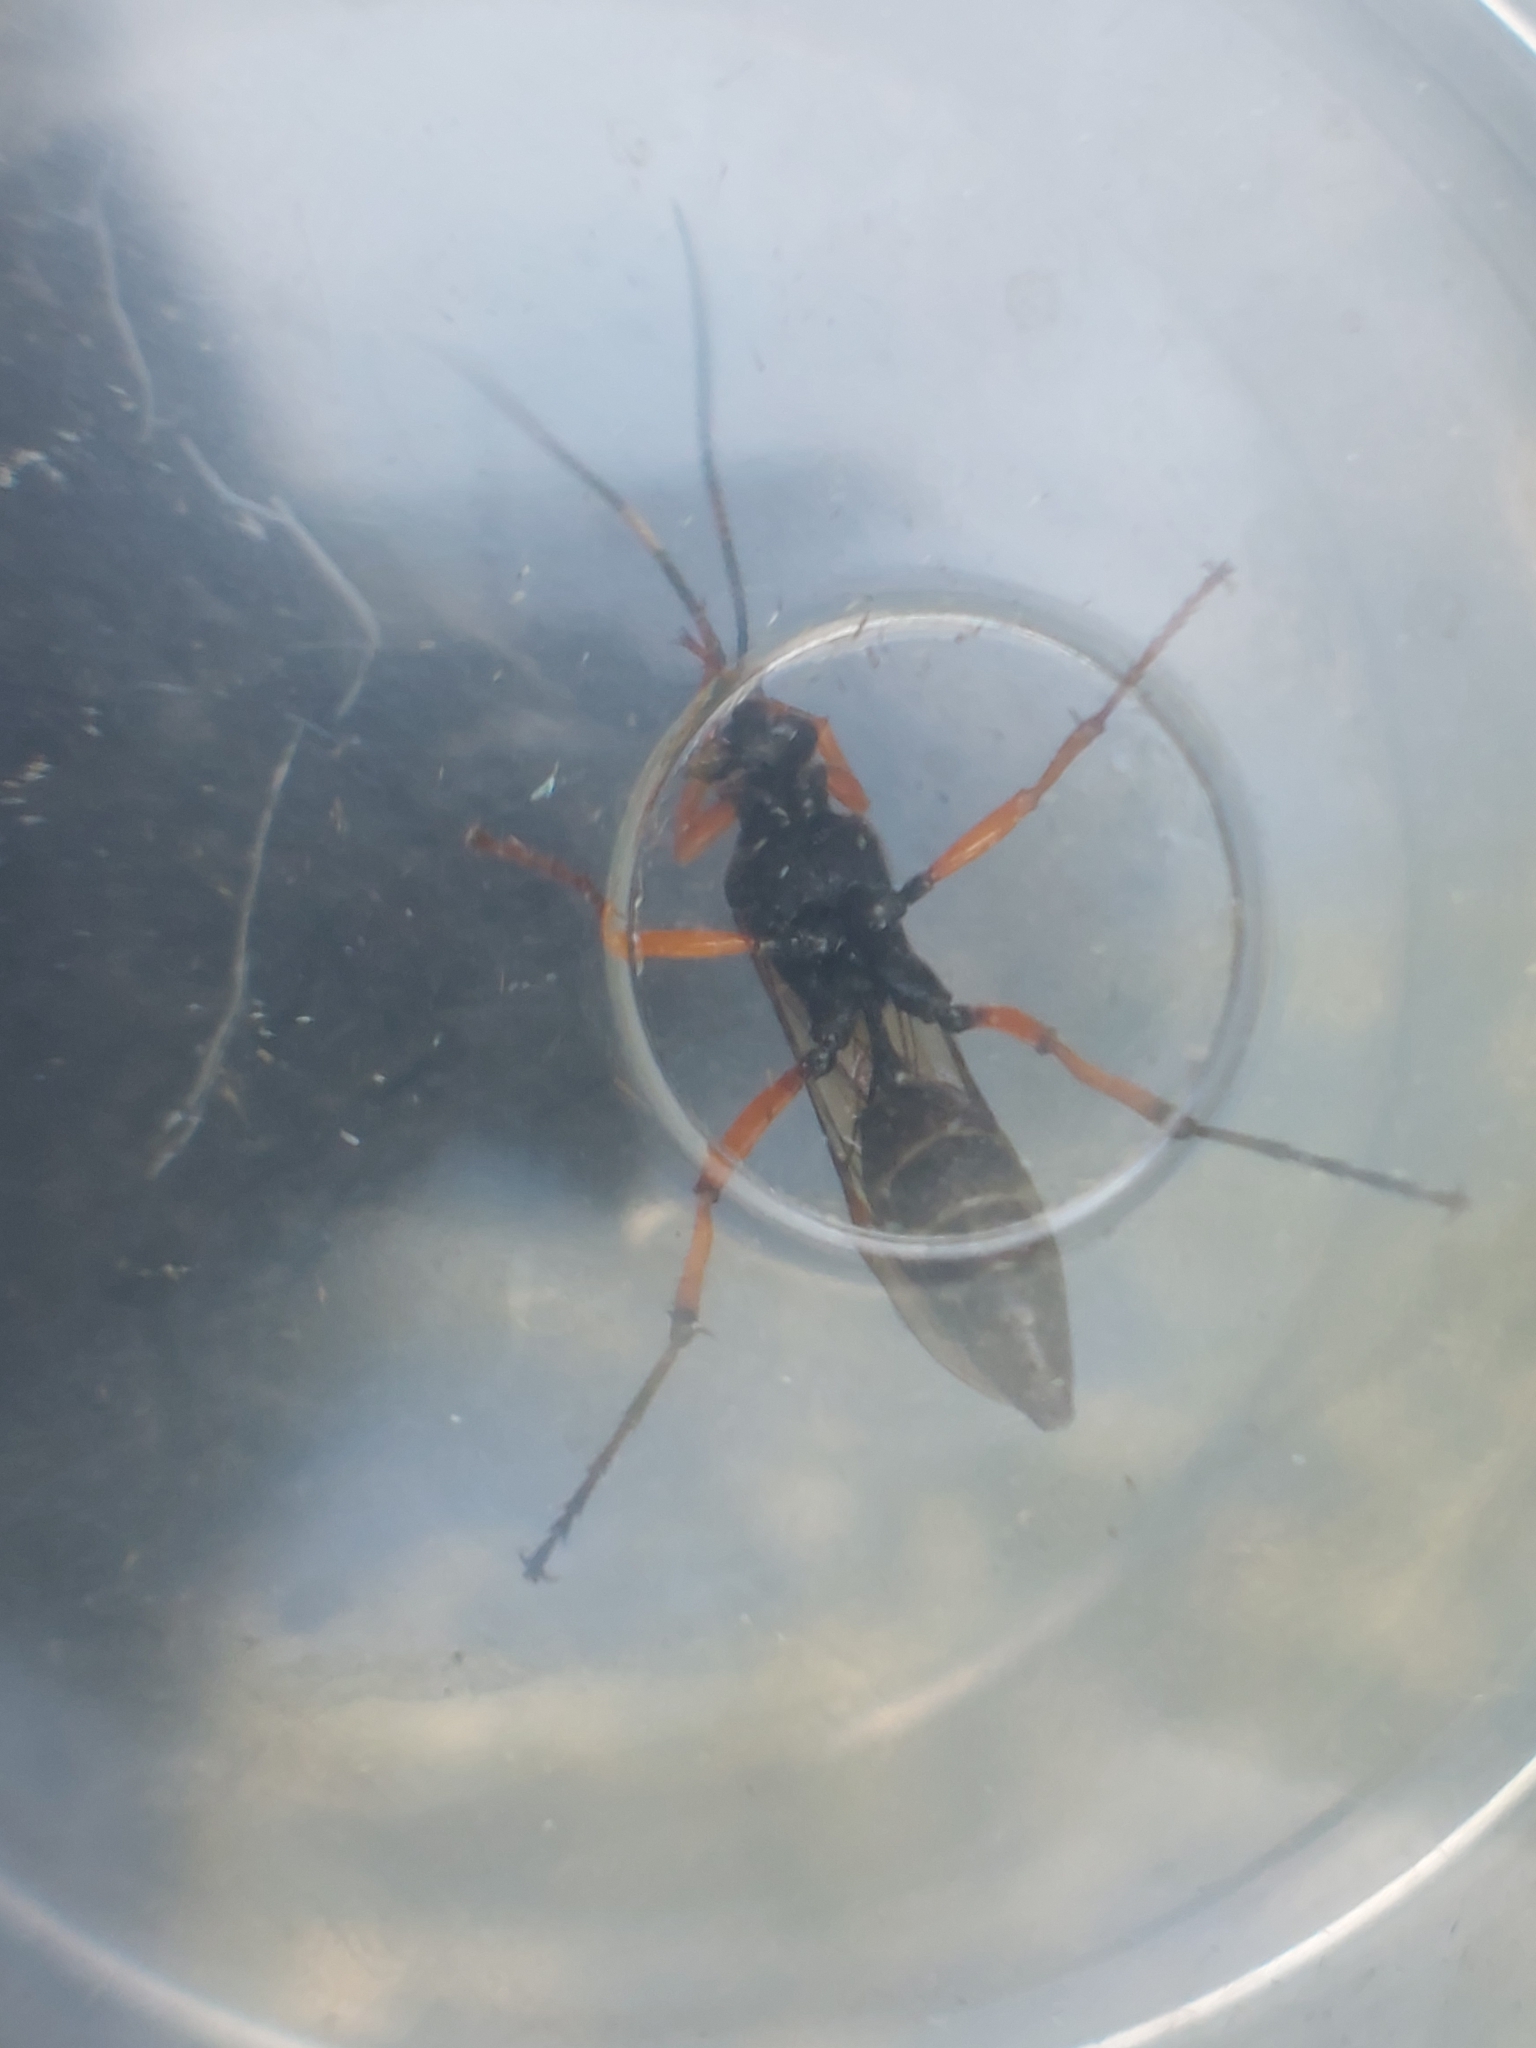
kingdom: Animalia
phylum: Arthropoda
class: Insecta
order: Hymenoptera
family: Ichneumonidae
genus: Diphyus
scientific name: Diphyus quadripunctorius
